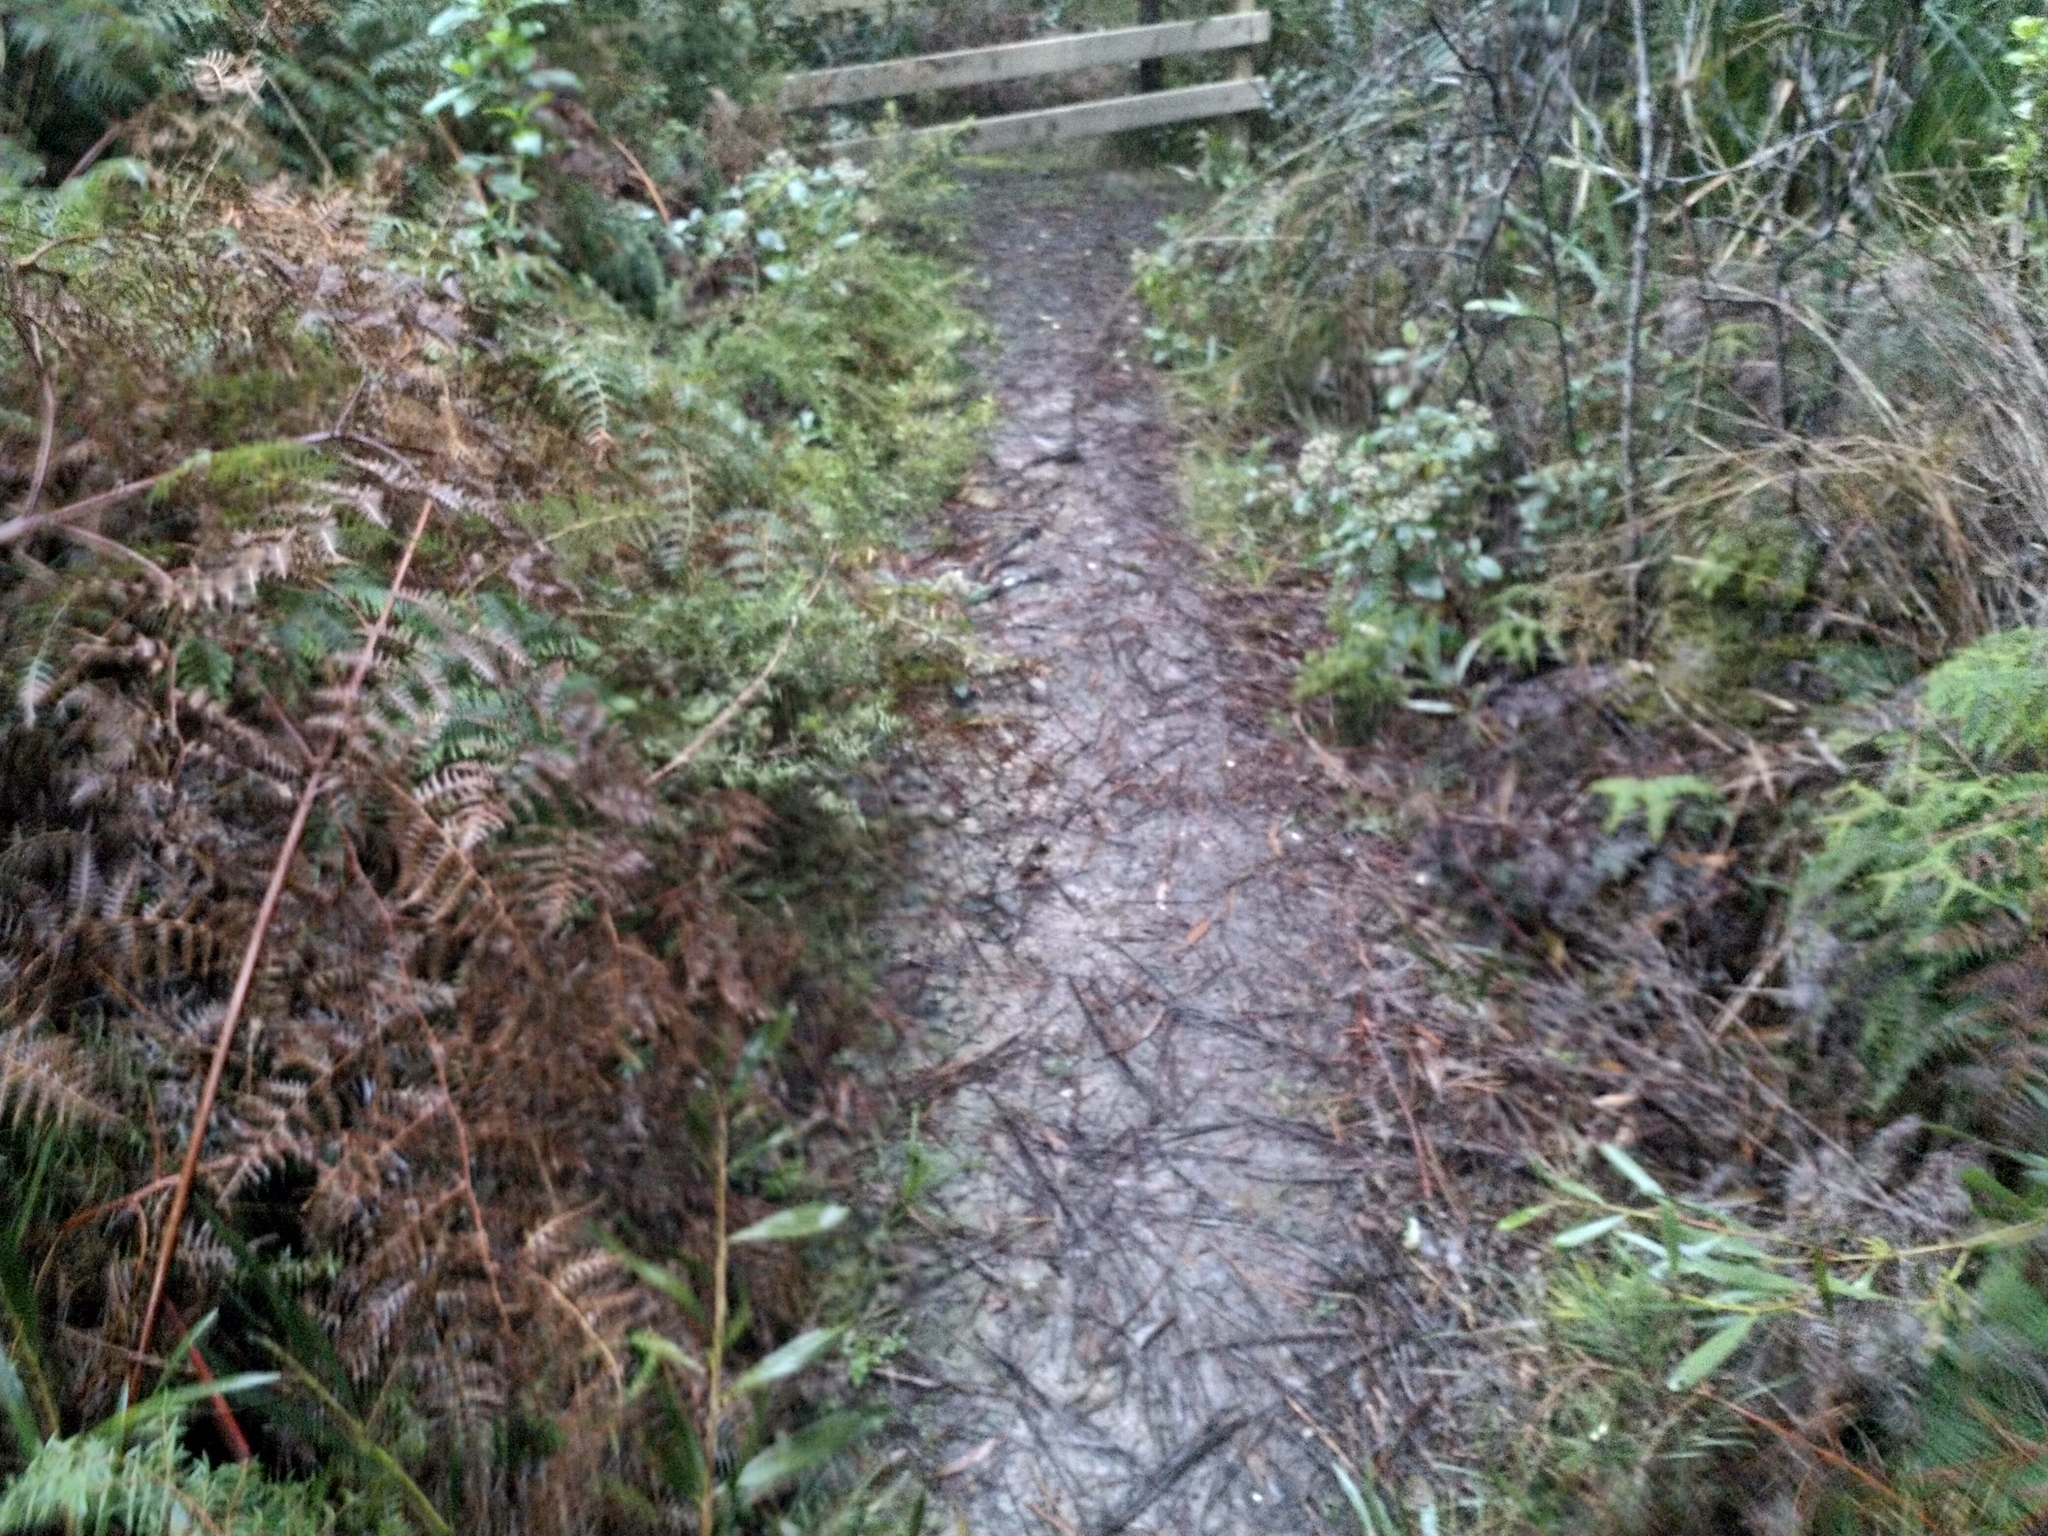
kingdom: Animalia
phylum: Chordata
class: Aves
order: Passeriformes
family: Rhipiduridae
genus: Rhipidura
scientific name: Rhipidura fuliginosa
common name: New zealand fantail
